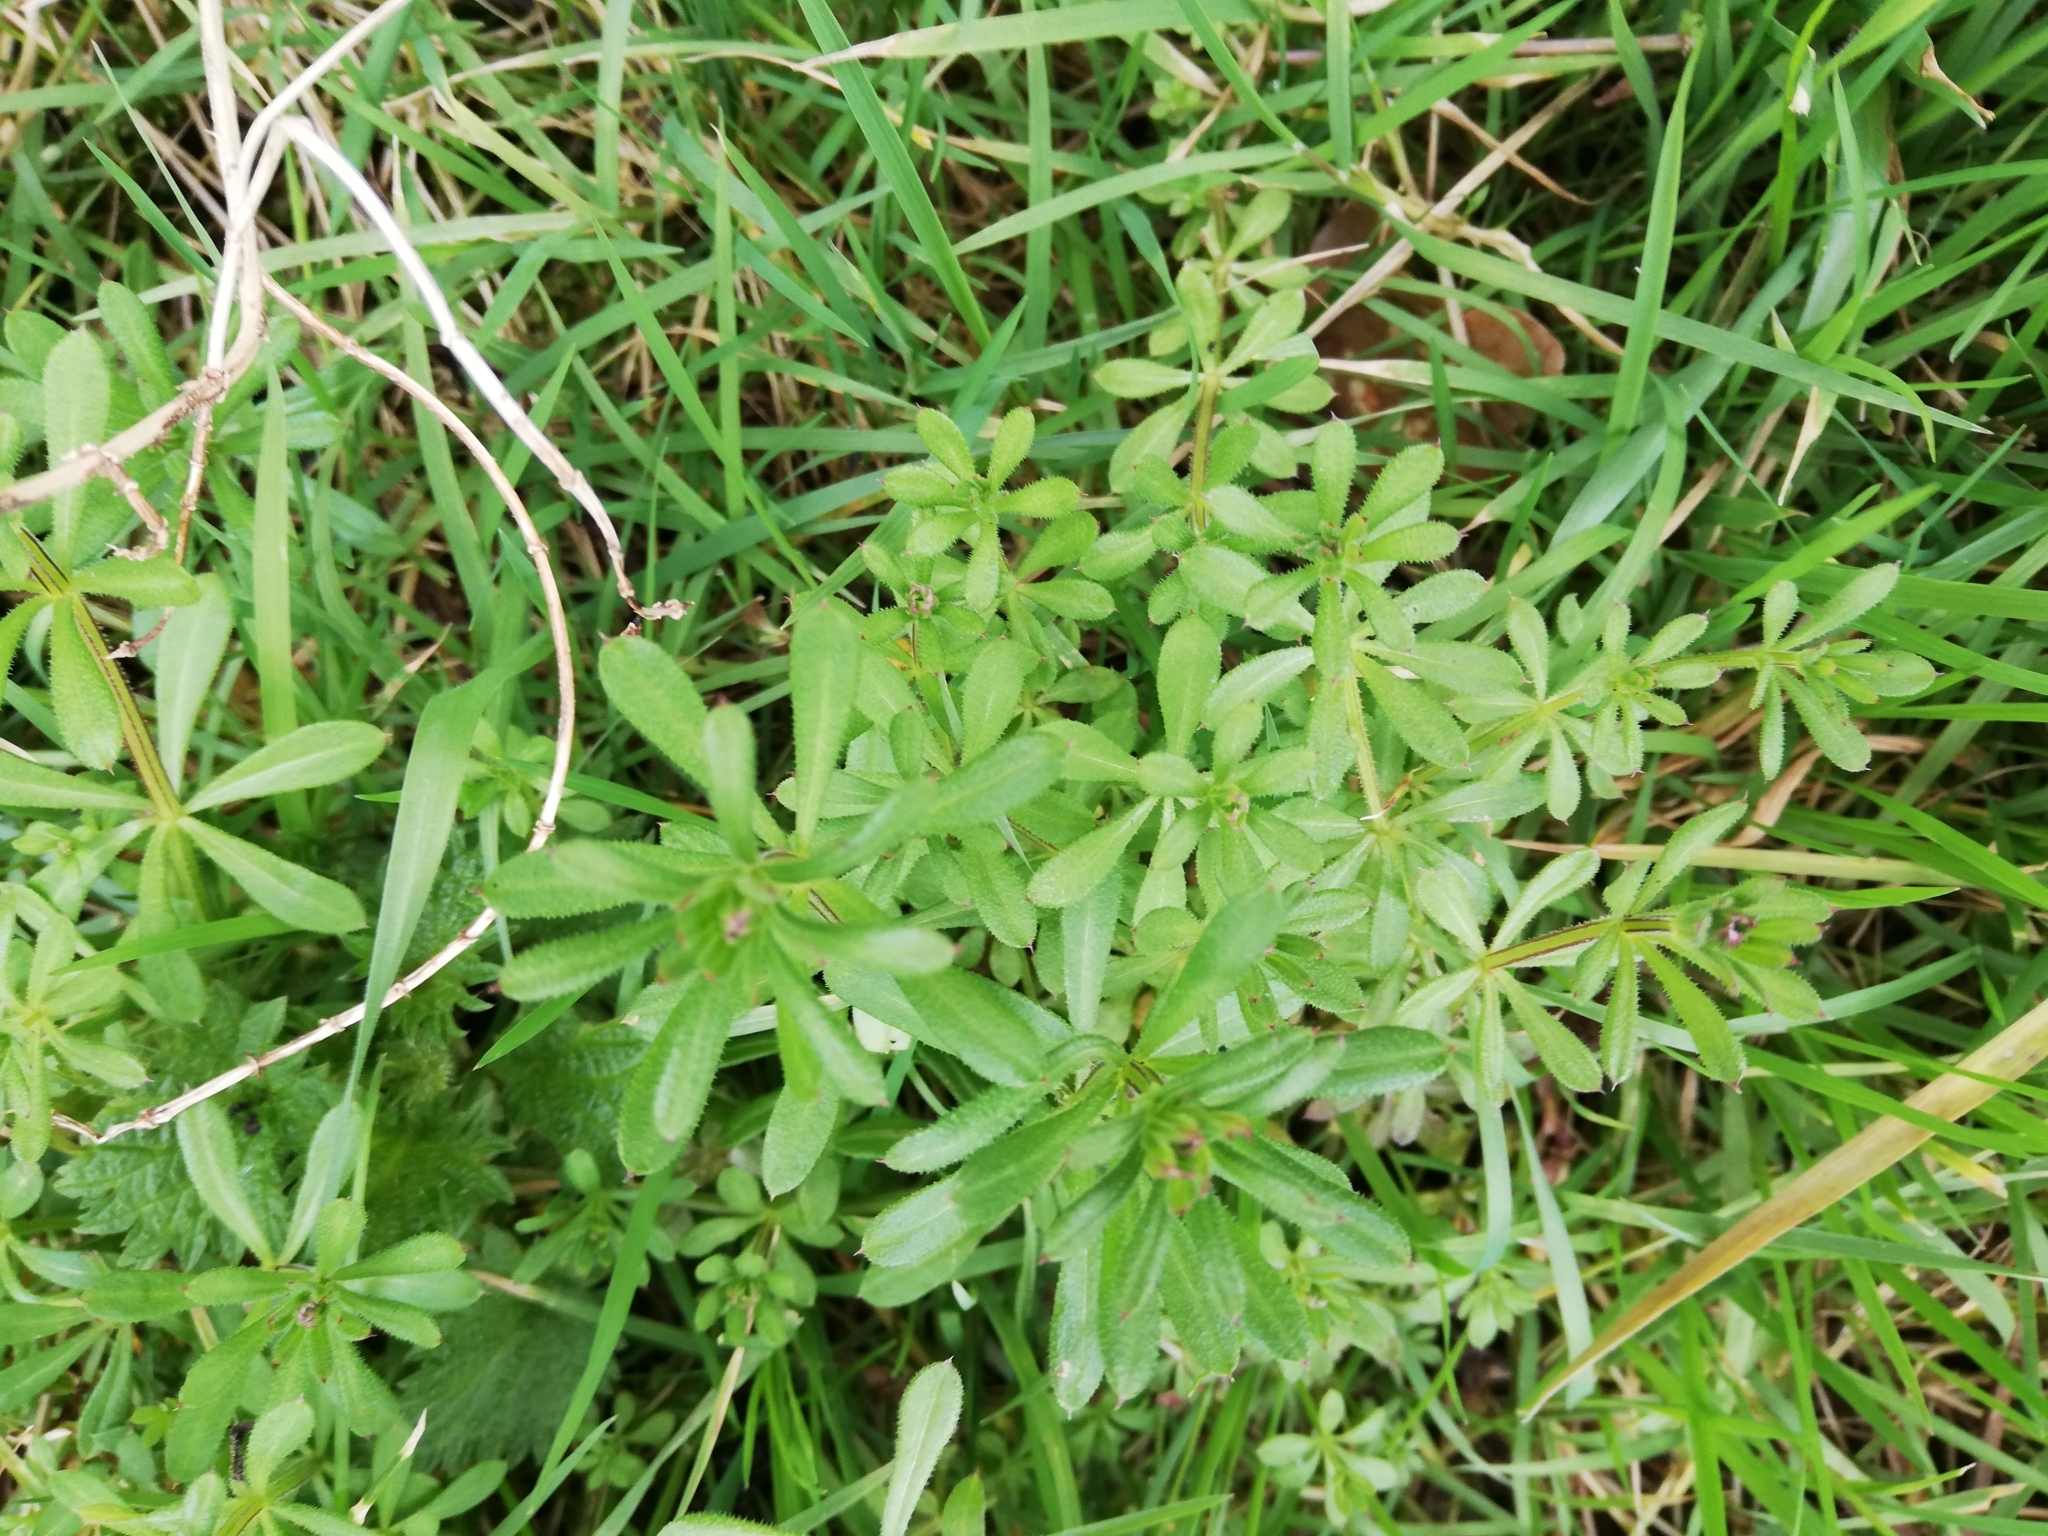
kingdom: Plantae
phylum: Tracheophyta
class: Magnoliopsida
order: Gentianales
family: Rubiaceae
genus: Galium
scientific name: Galium aparine
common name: Cleavers
